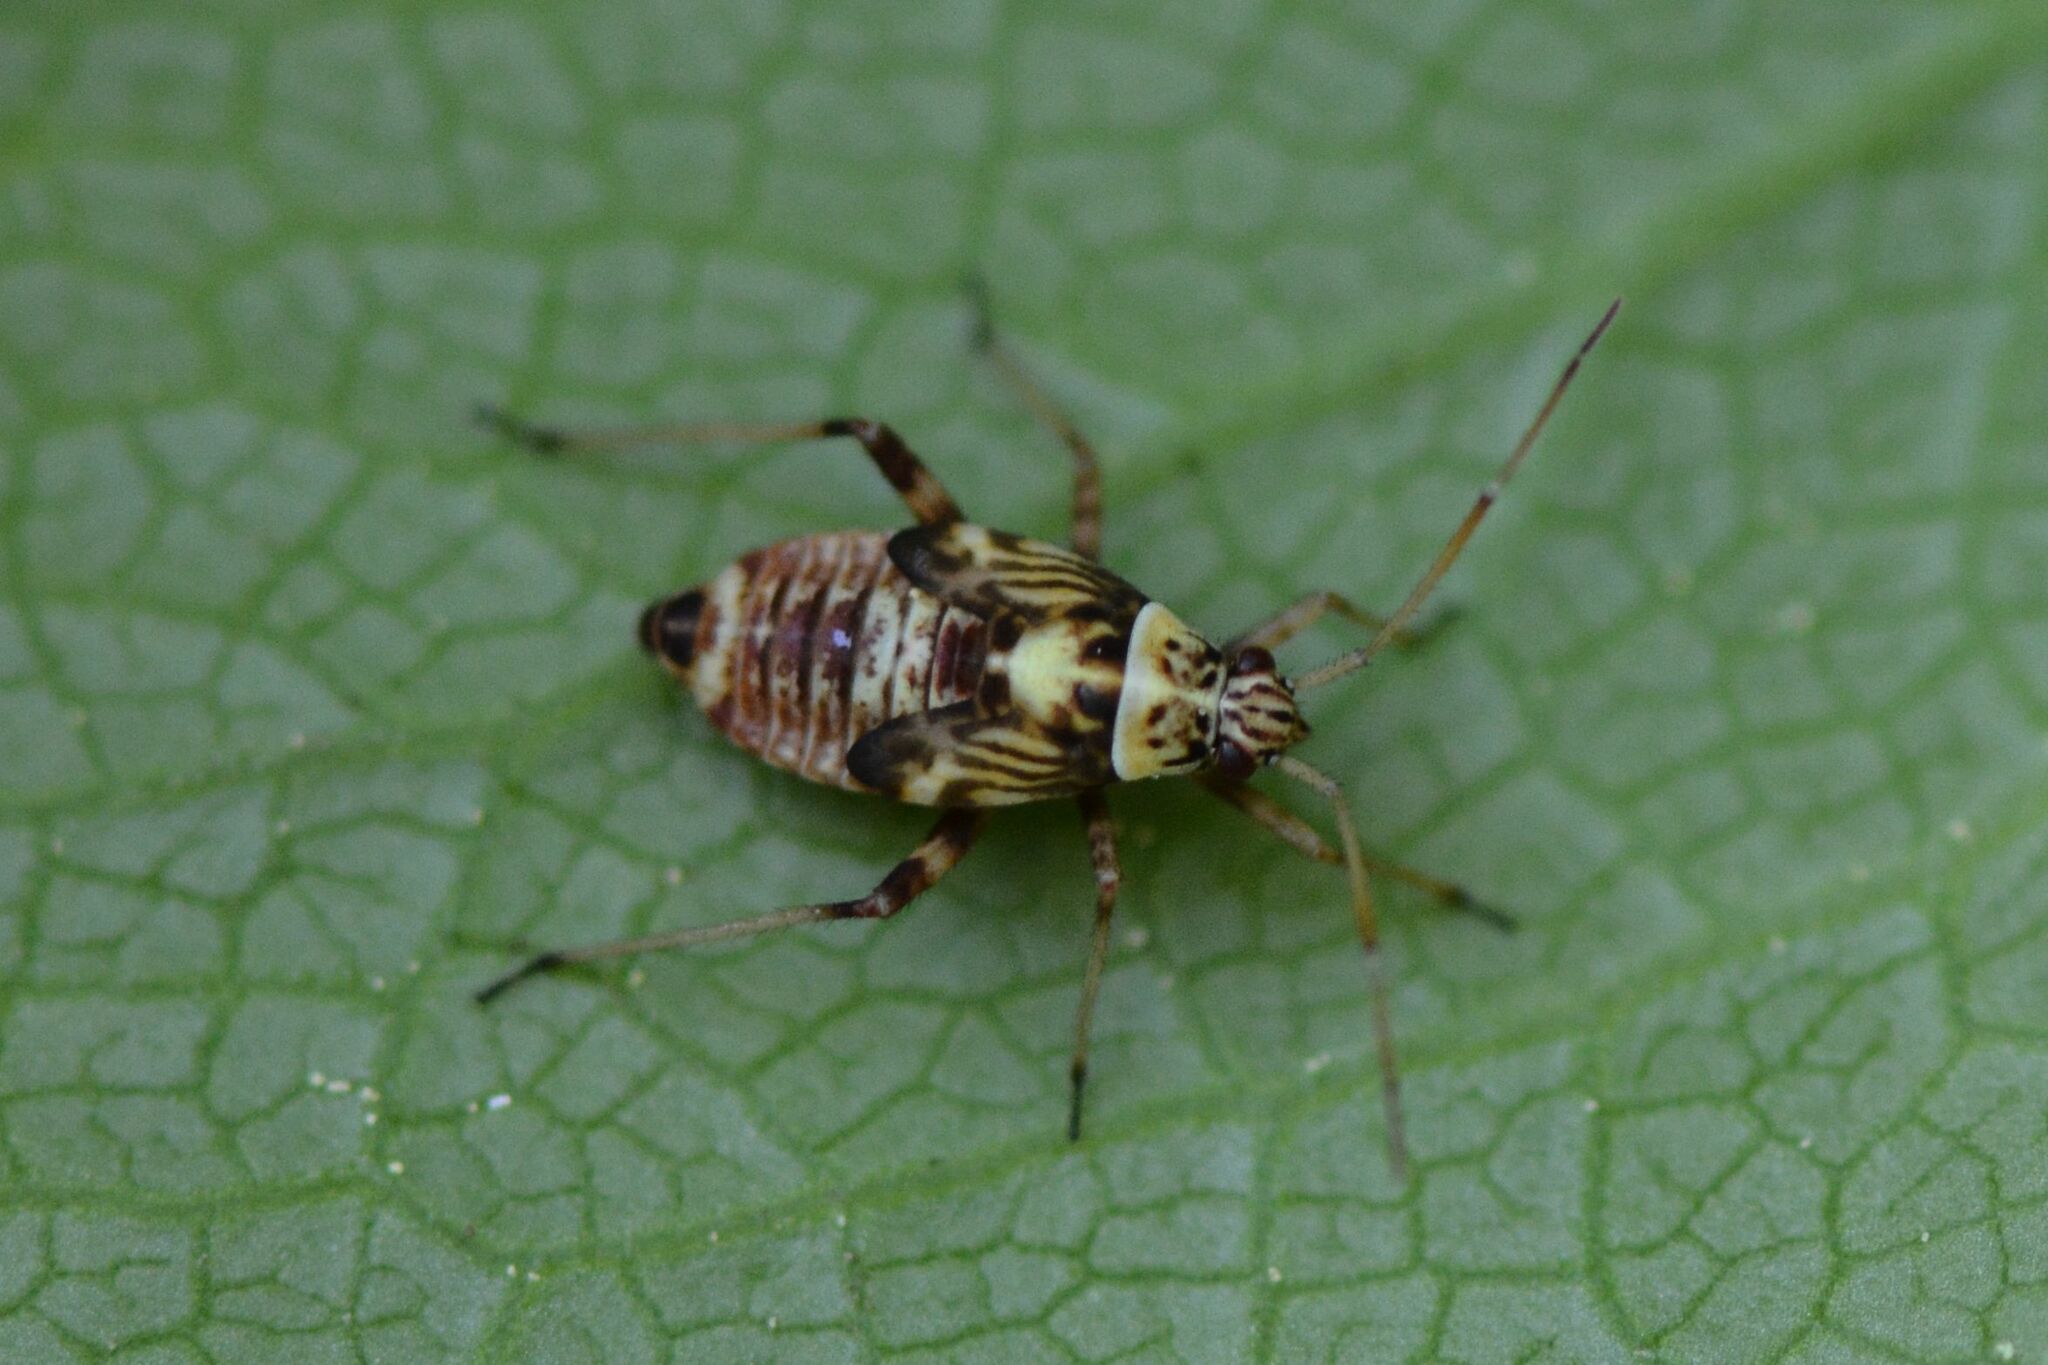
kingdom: Animalia
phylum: Arthropoda
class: Insecta
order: Hemiptera
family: Miridae
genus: Rhabdomiris
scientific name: Rhabdomiris striatellus
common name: Plant bug
